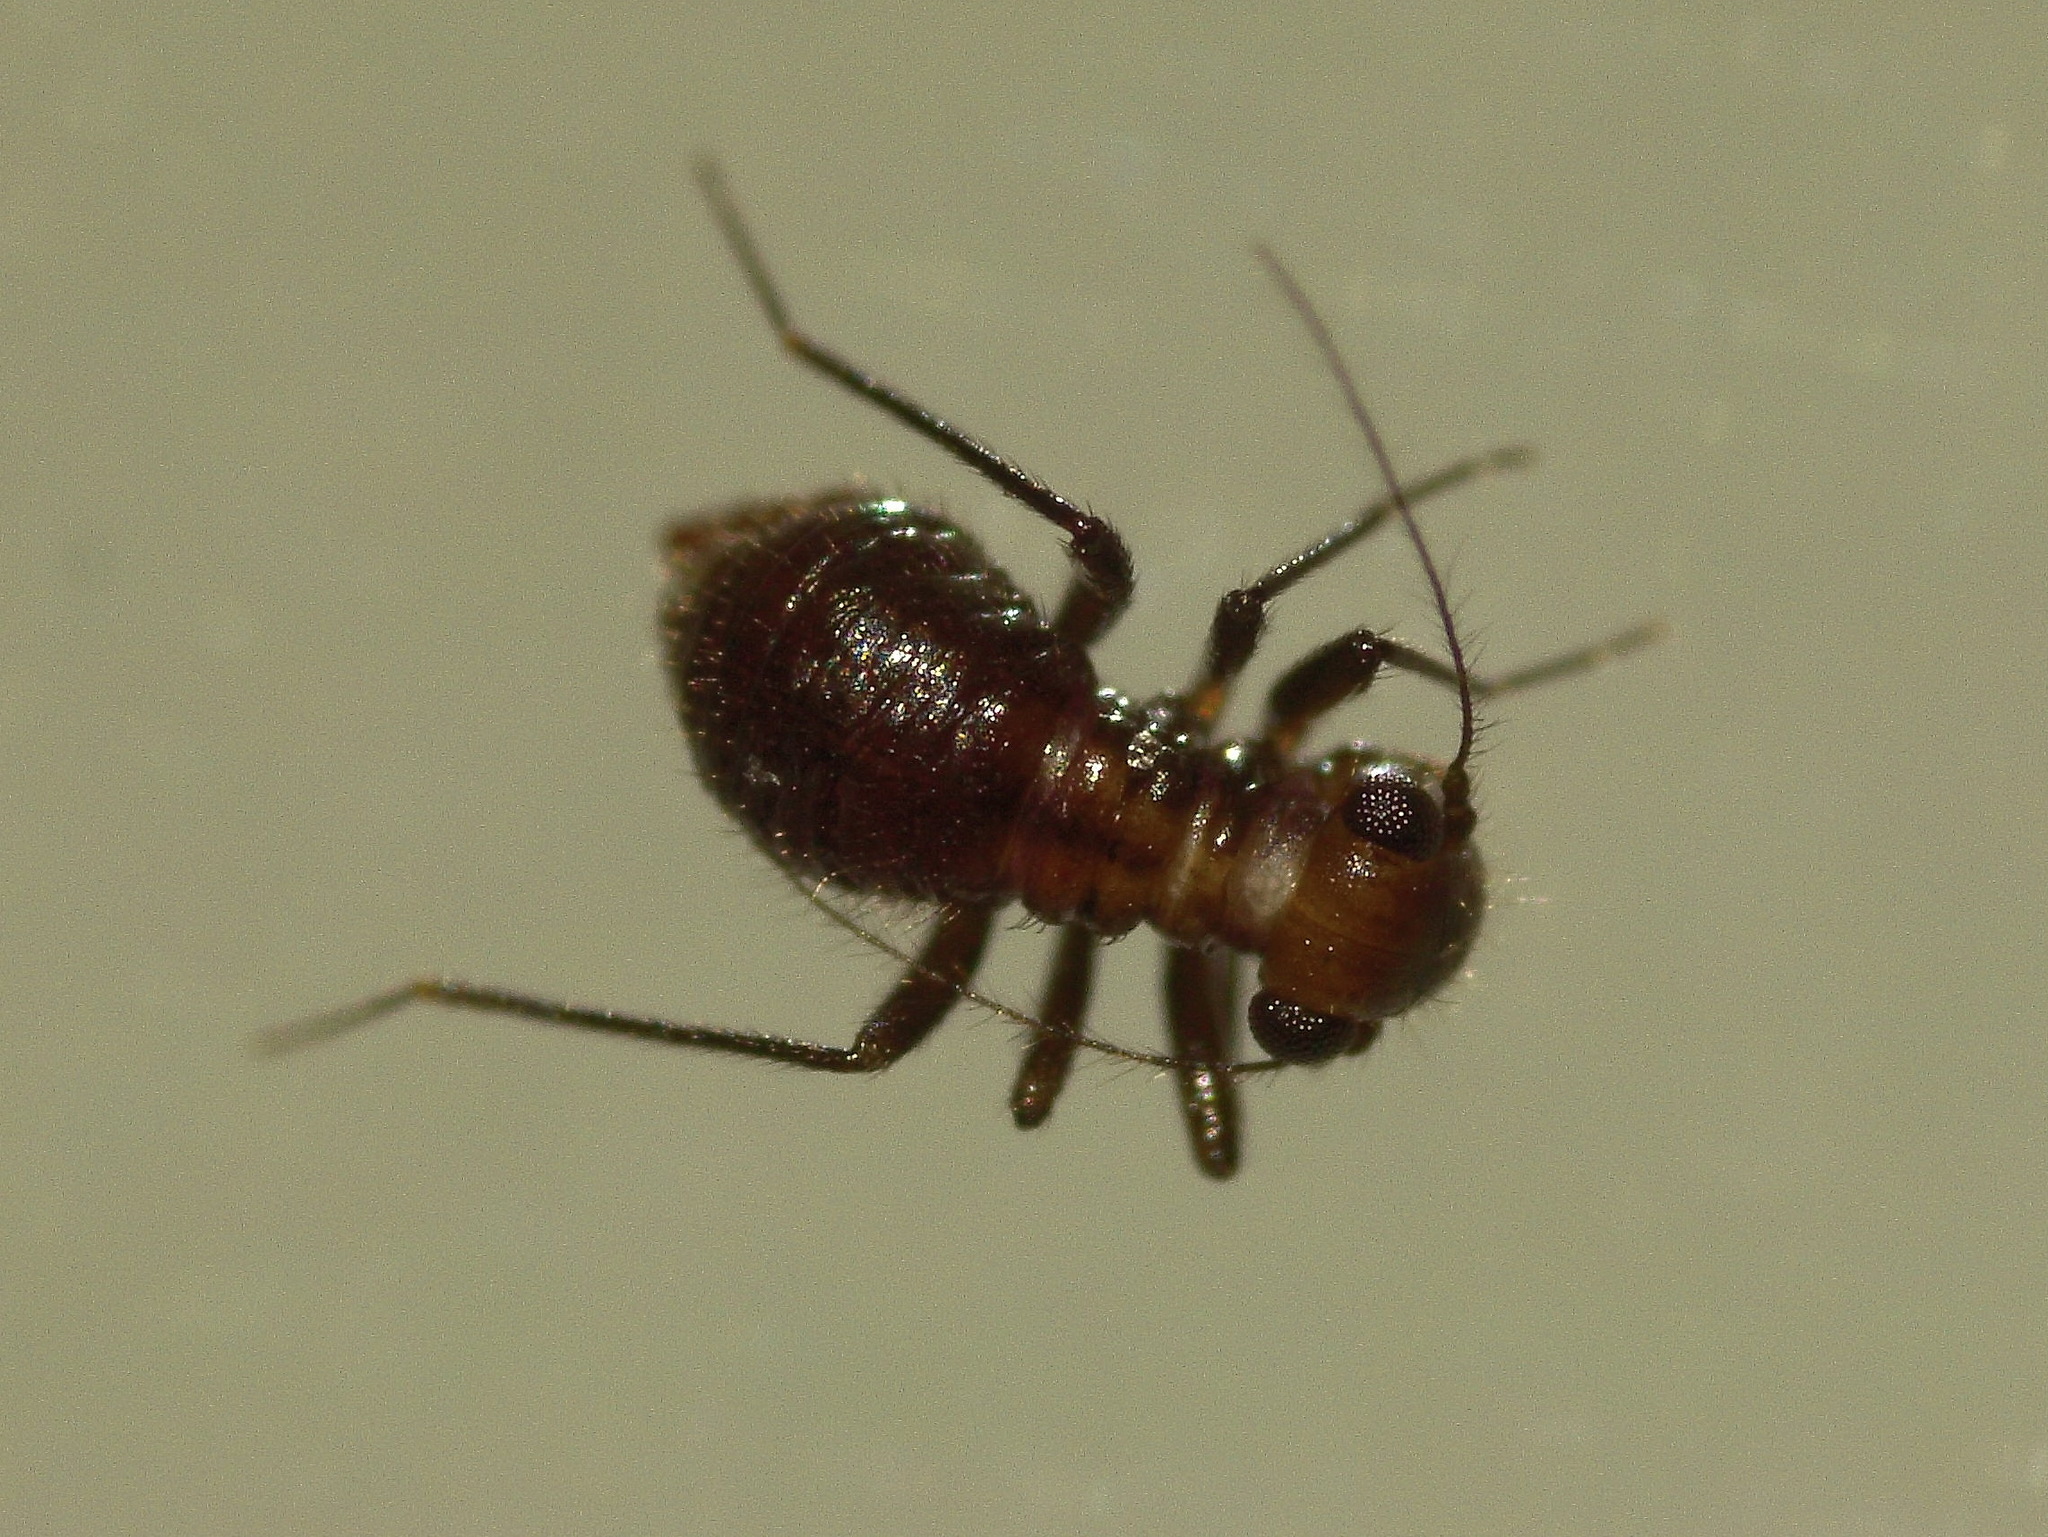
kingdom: Animalia
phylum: Arthropoda
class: Insecta
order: Psocodea
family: Epipsocidae
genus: Bertkauia
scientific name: Bertkauia lucifuga
